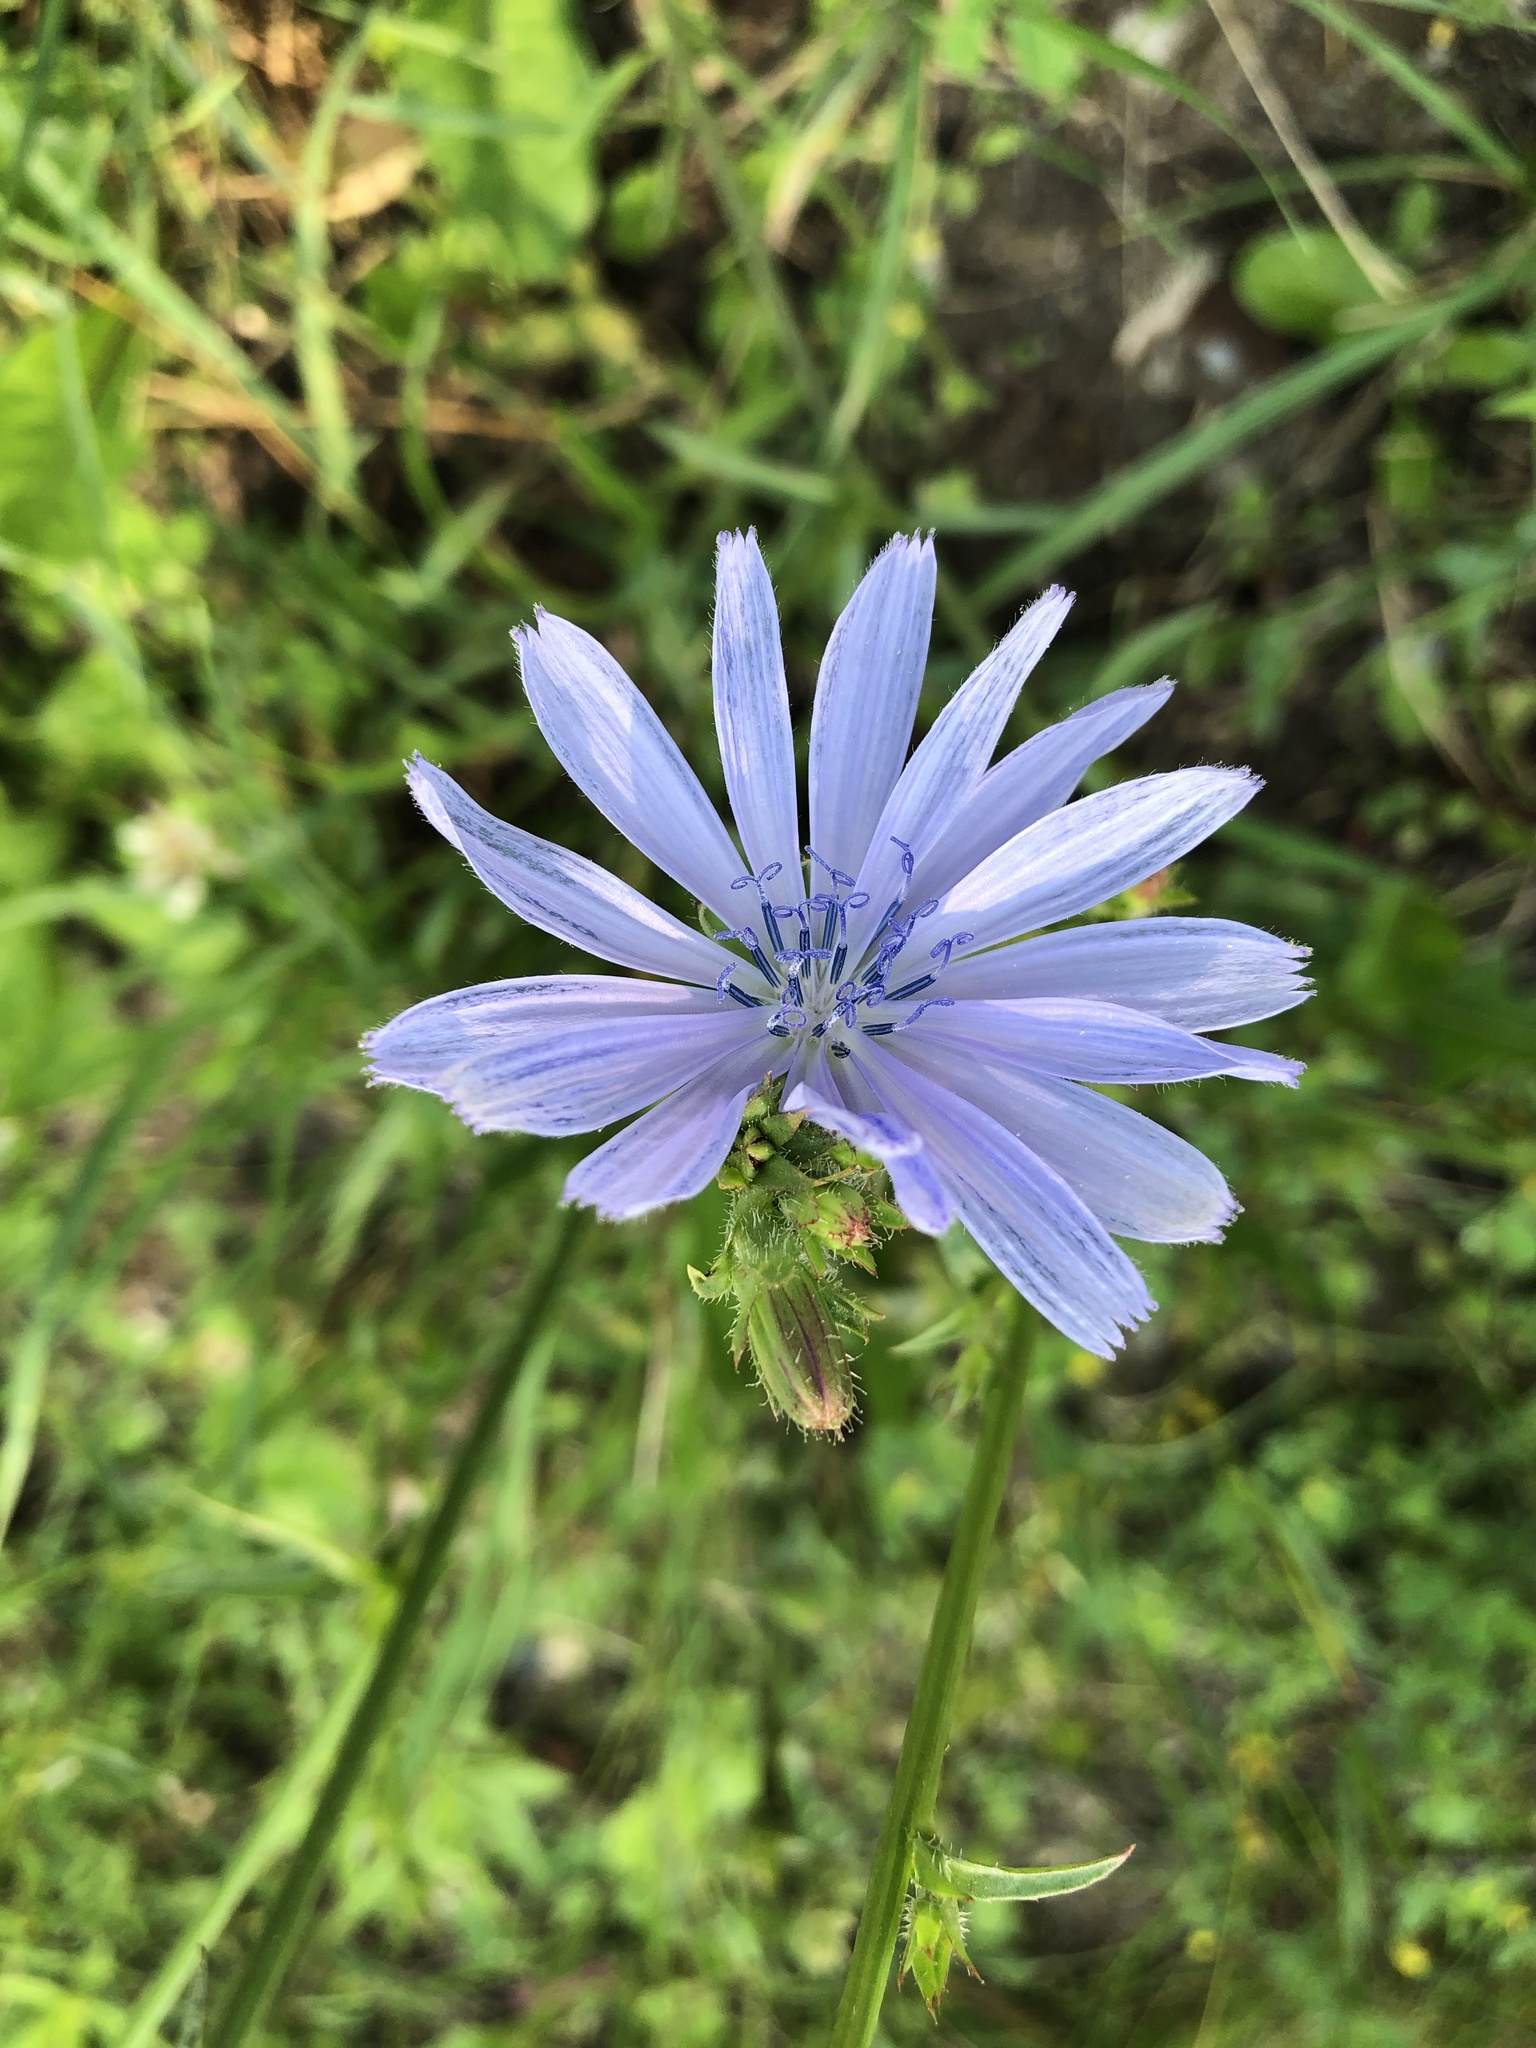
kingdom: Plantae
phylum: Tracheophyta
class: Magnoliopsida
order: Asterales
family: Asteraceae
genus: Cichorium
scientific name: Cichorium intybus
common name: Chicory
